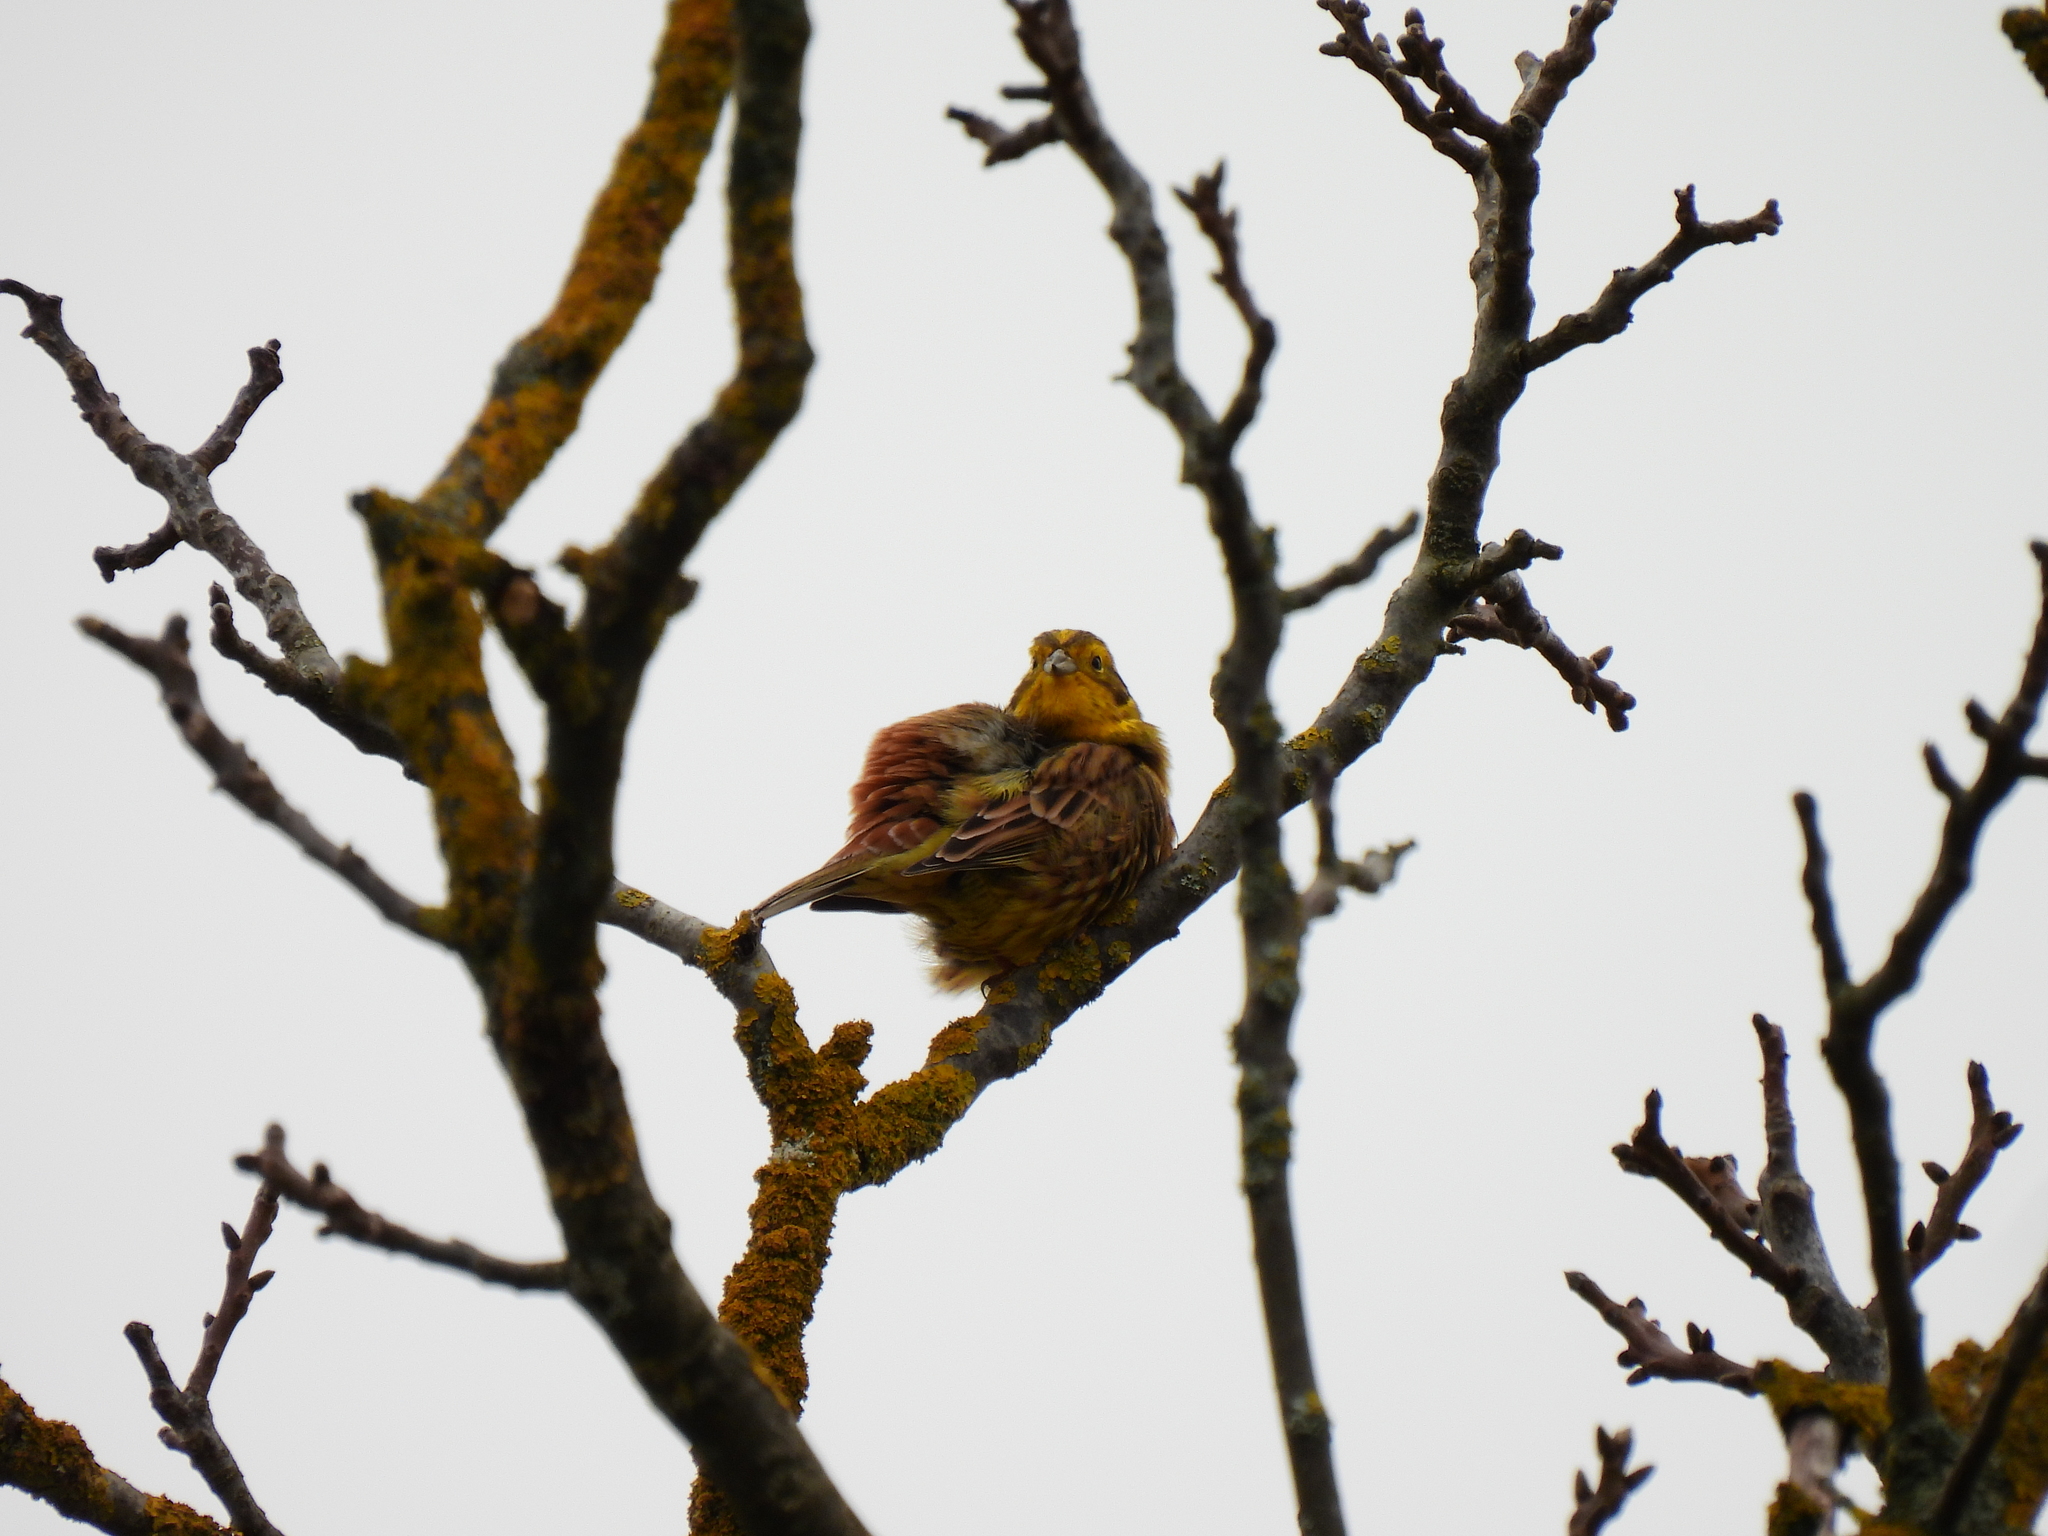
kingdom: Animalia
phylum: Chordata
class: Aves
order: Passeriformes
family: Emberizidae
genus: Emberiza
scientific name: Emberiza citrinella
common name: Yellowhammer
